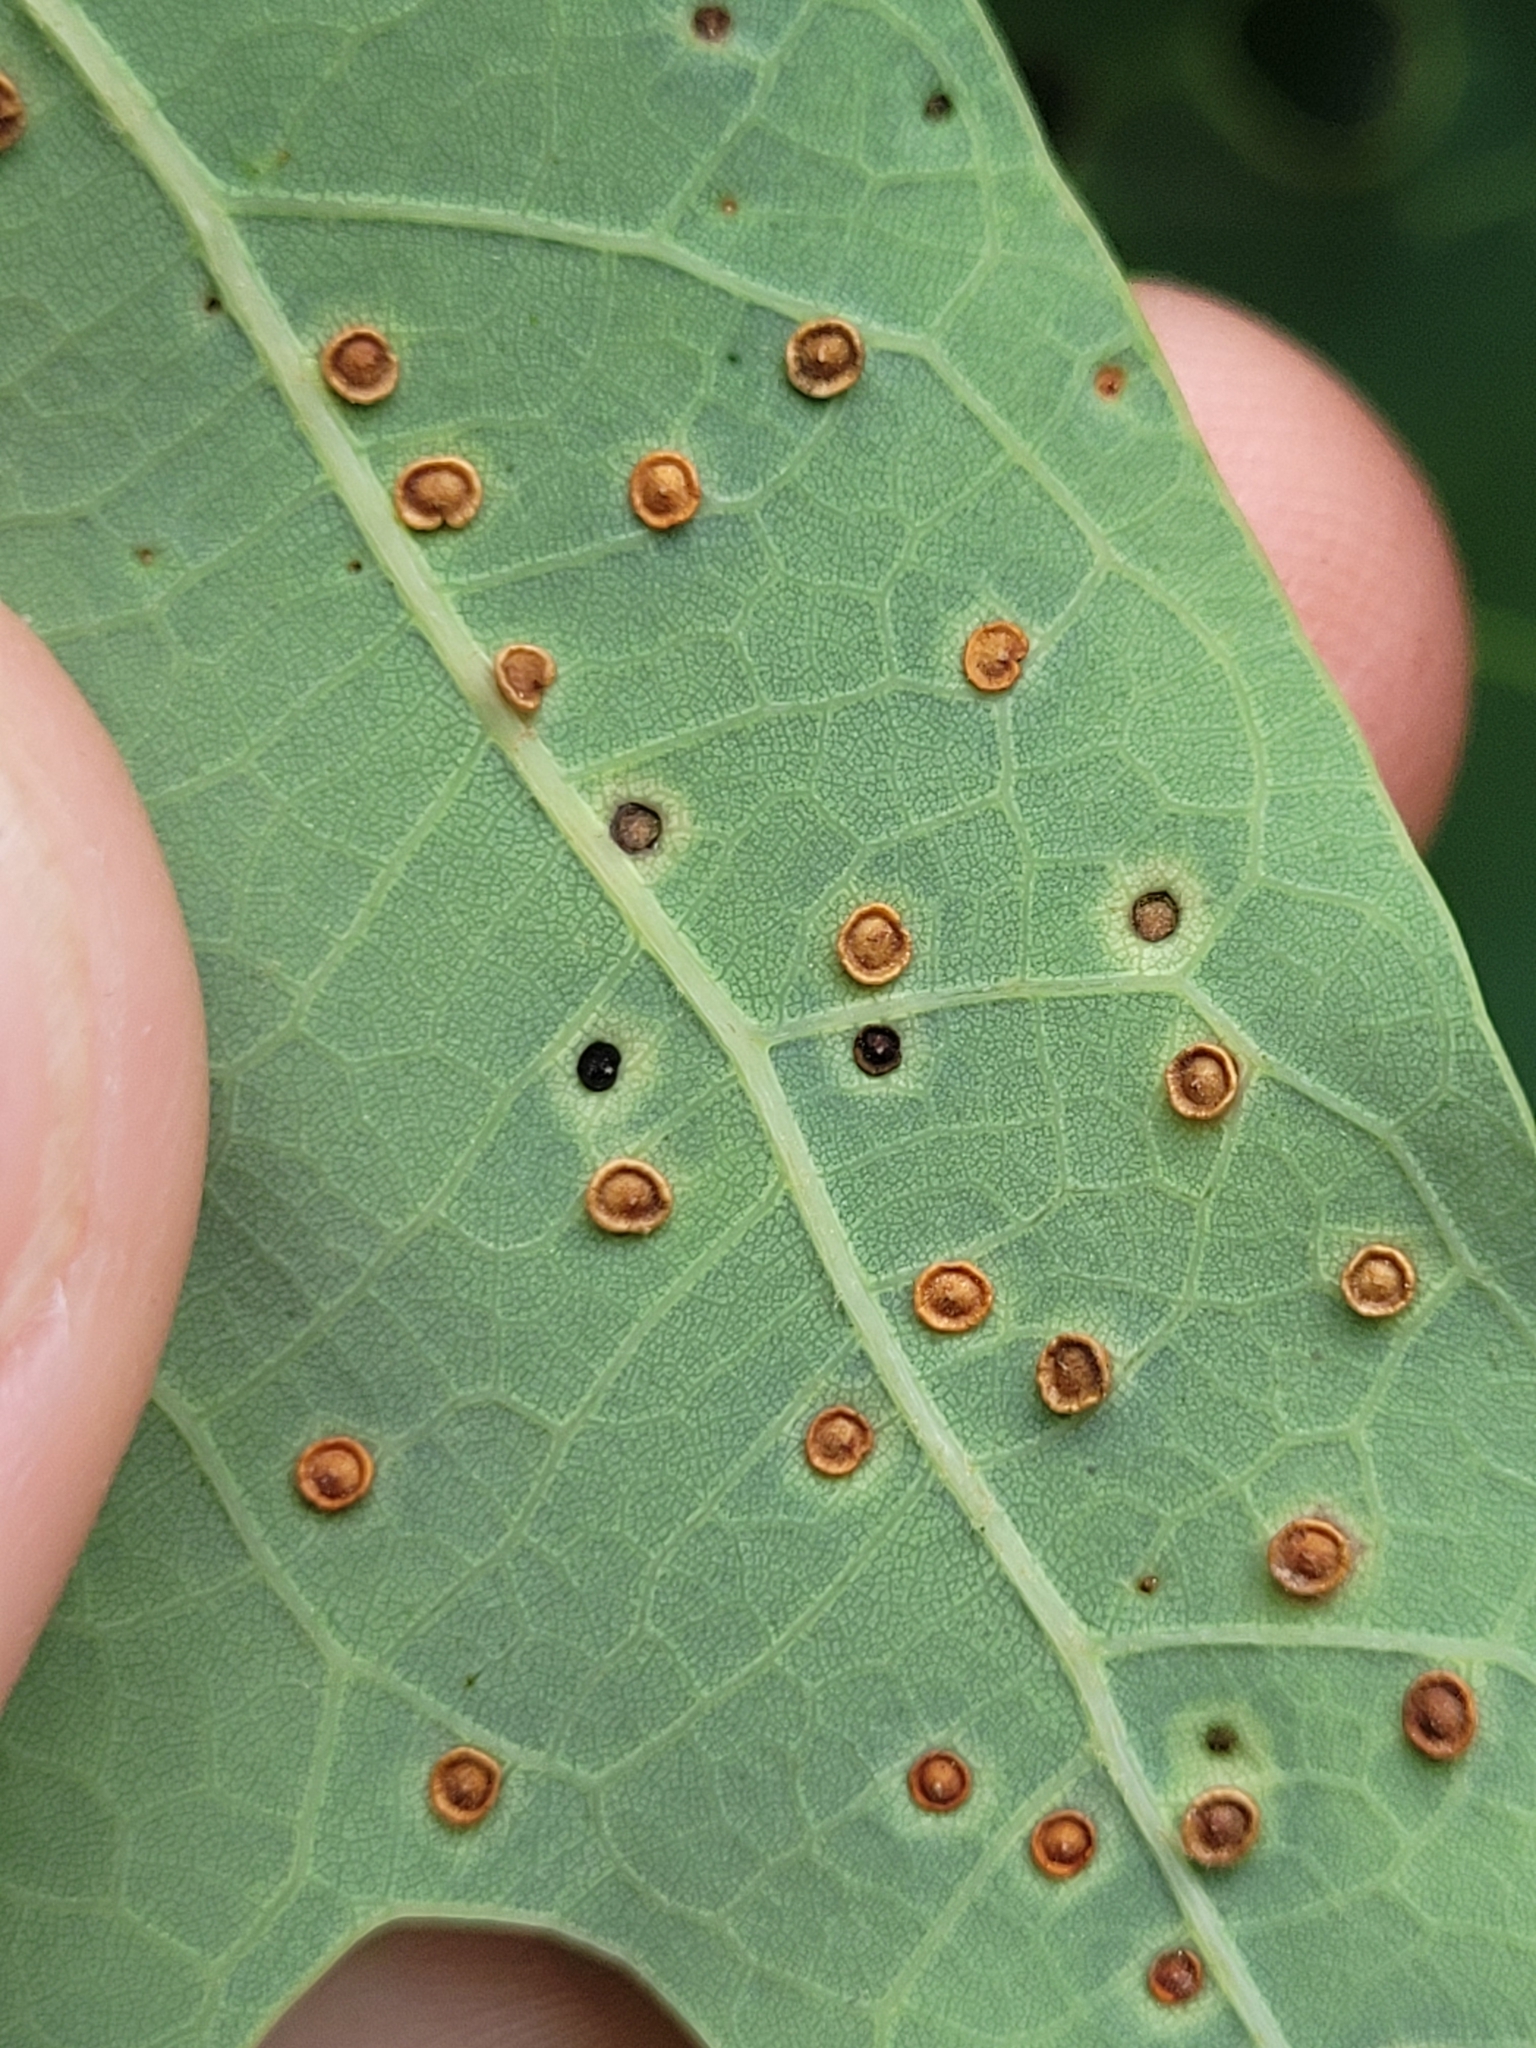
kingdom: Animalia
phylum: Arthropoda
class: Insecta
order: Hymenoptera
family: Cynipidae
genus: Neuroterus
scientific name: Neuroterus
